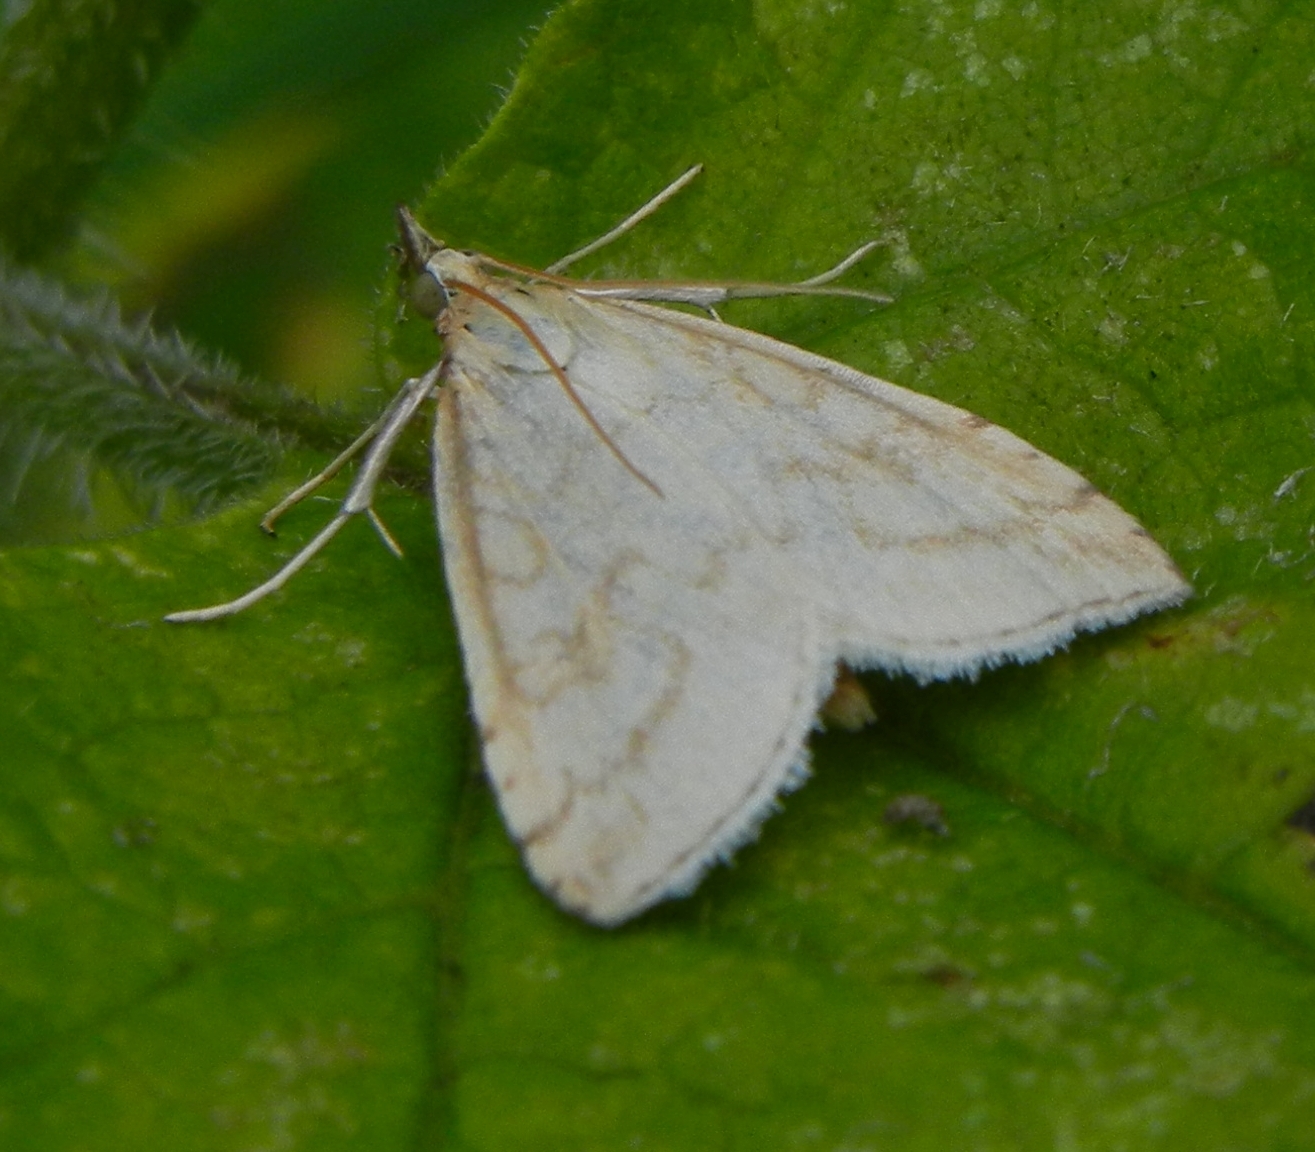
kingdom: Animalia
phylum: Arthropoda
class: Insecta
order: Lepidoptera
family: Crambidae
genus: Udea
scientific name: Udea lutealis
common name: Pale straw pearl
